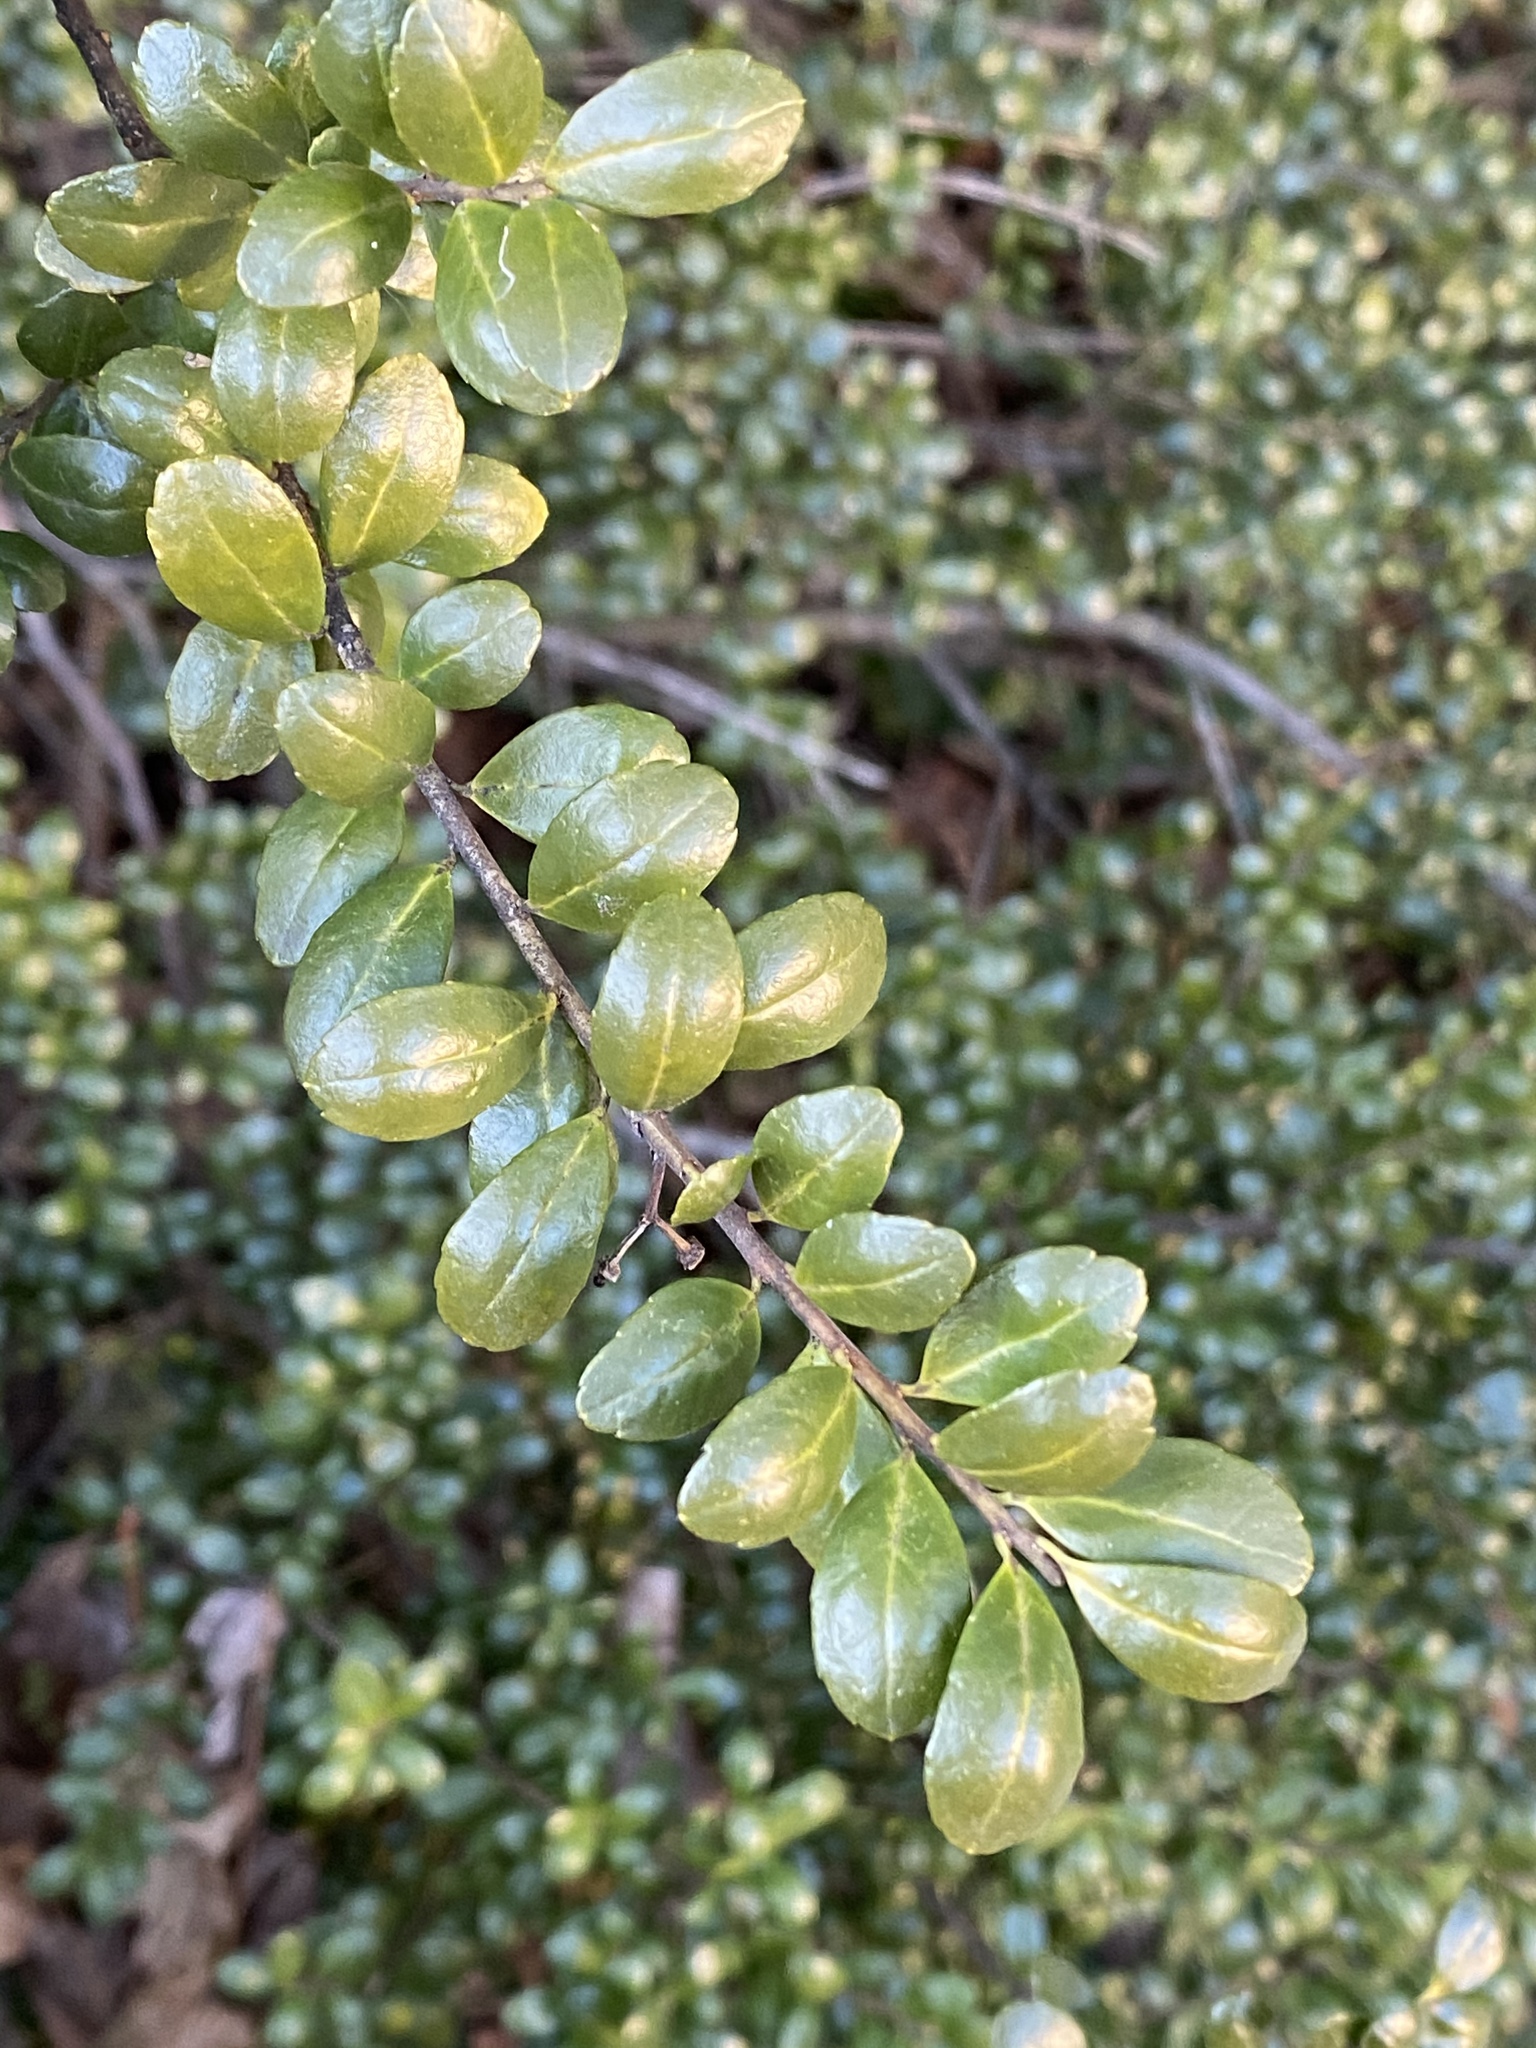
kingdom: Plantae
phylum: Tracheophyta
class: Magnoliopsida
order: Aquifoliales
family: Aquifoliaceae
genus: Ilex
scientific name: Ilex crenata
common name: Japanese holly
